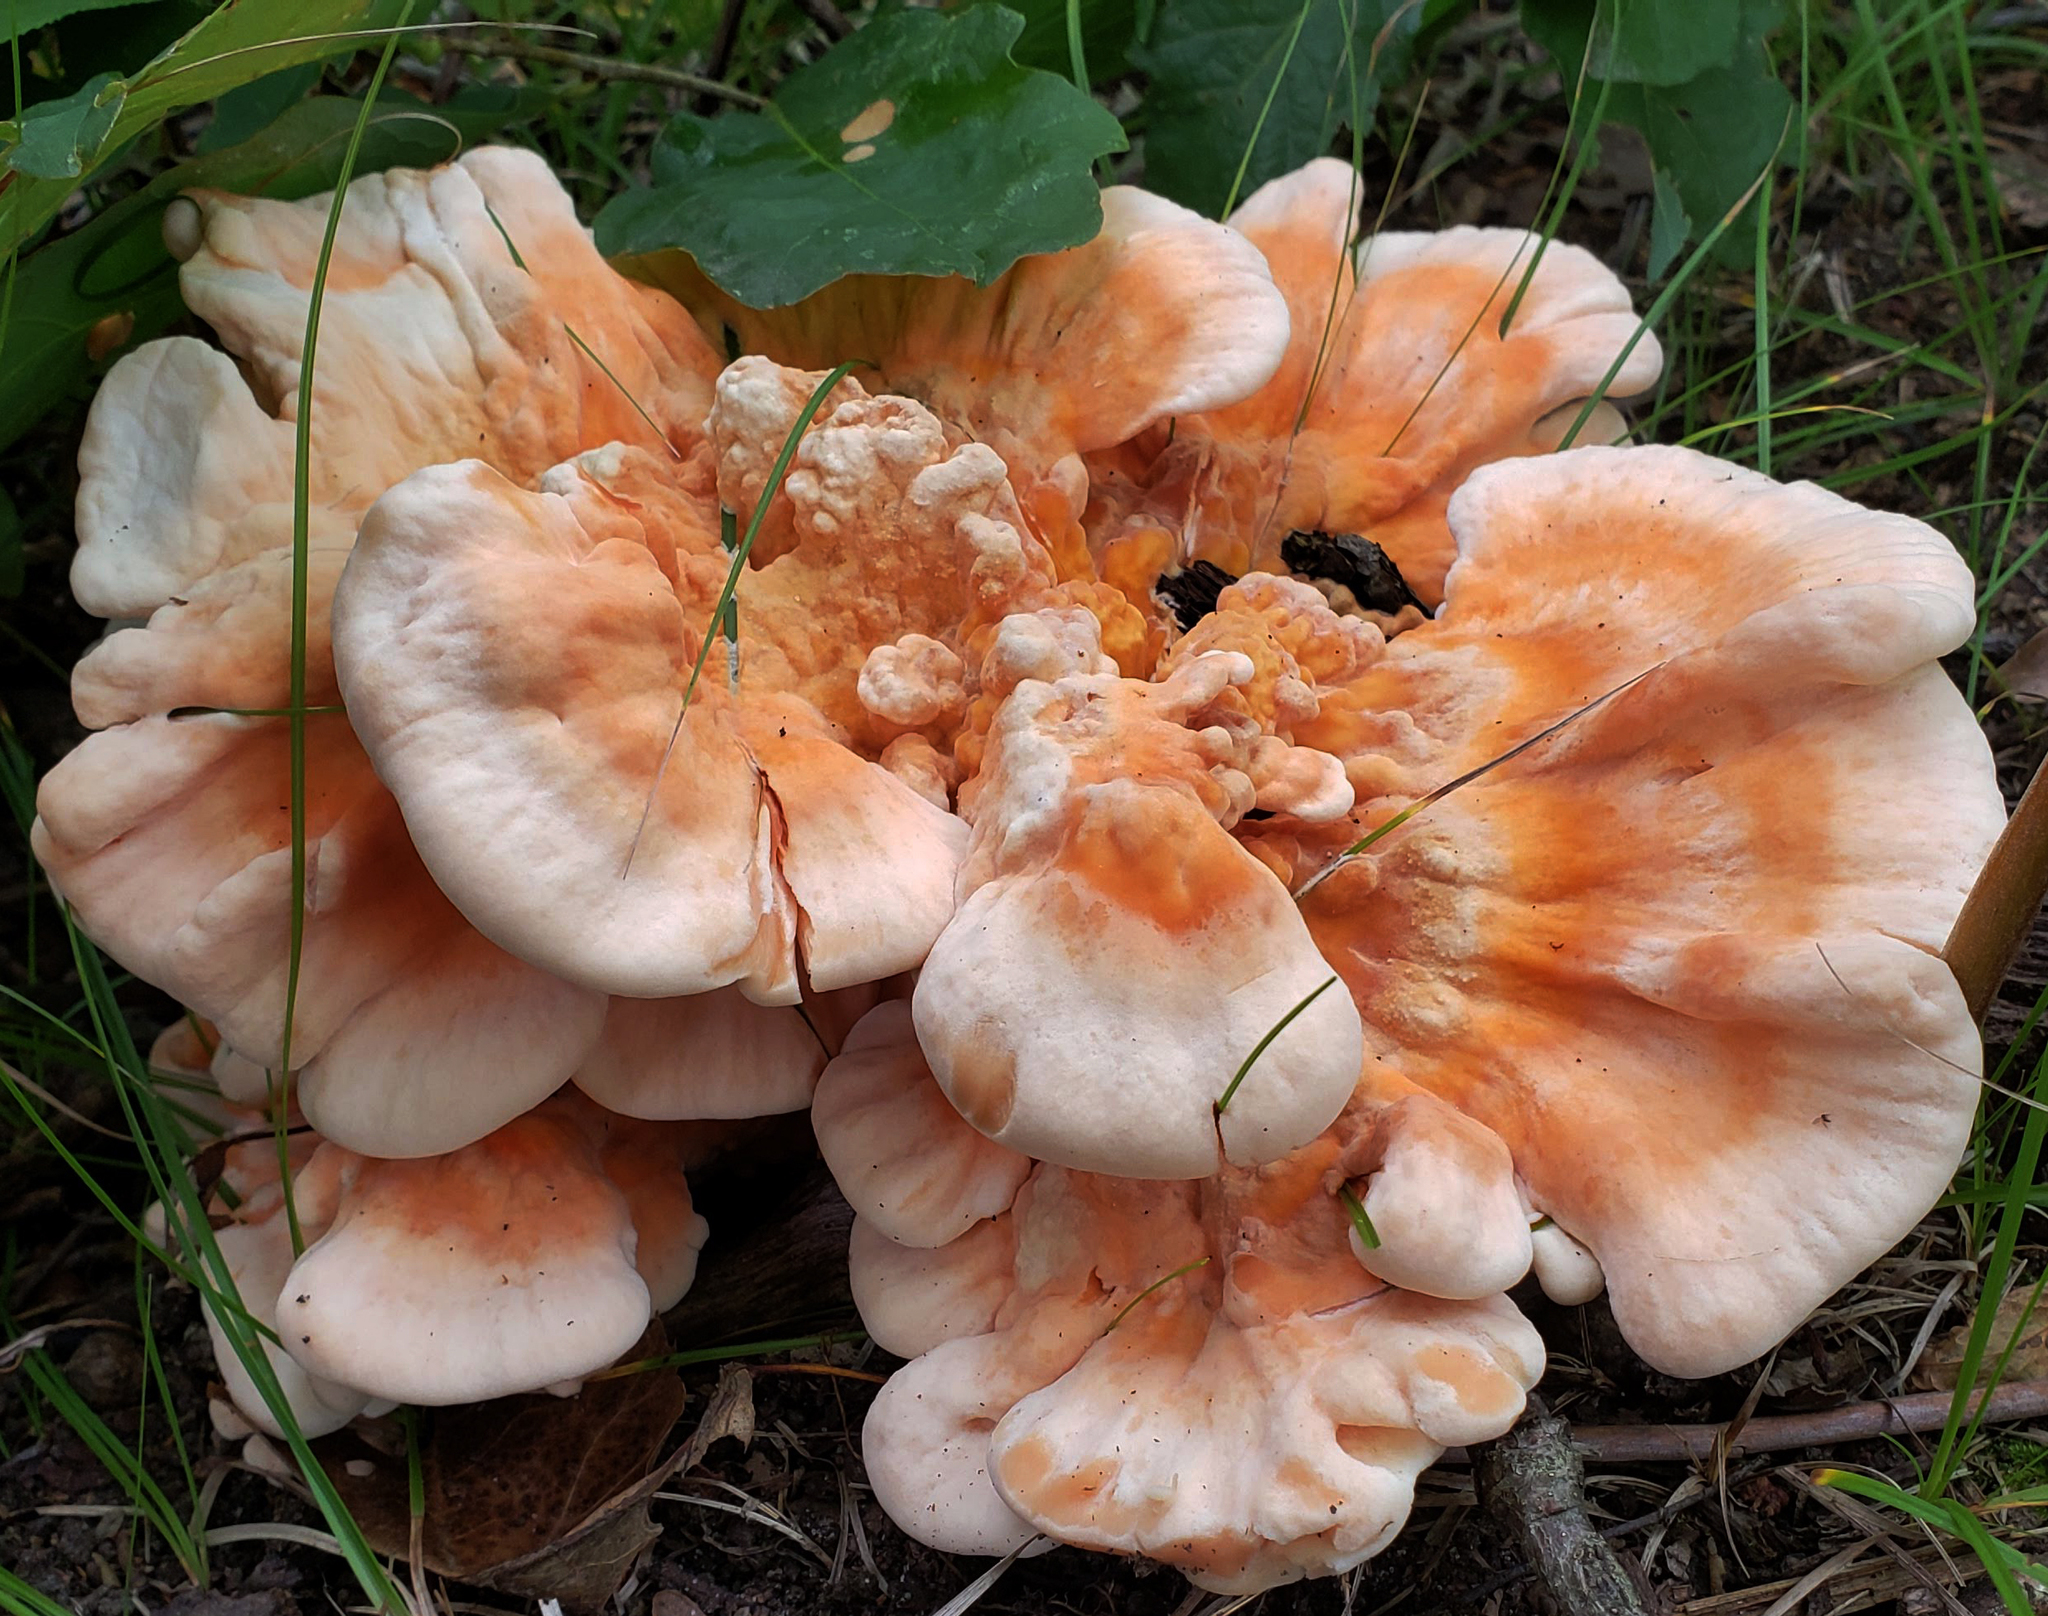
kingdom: Fungi
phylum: Basidiomycota
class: Agaricomycetes
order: Polyporales
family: Laetiporaceae
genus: Laetiporus
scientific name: Laetiporus sulphureus
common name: Chicken of the woods
